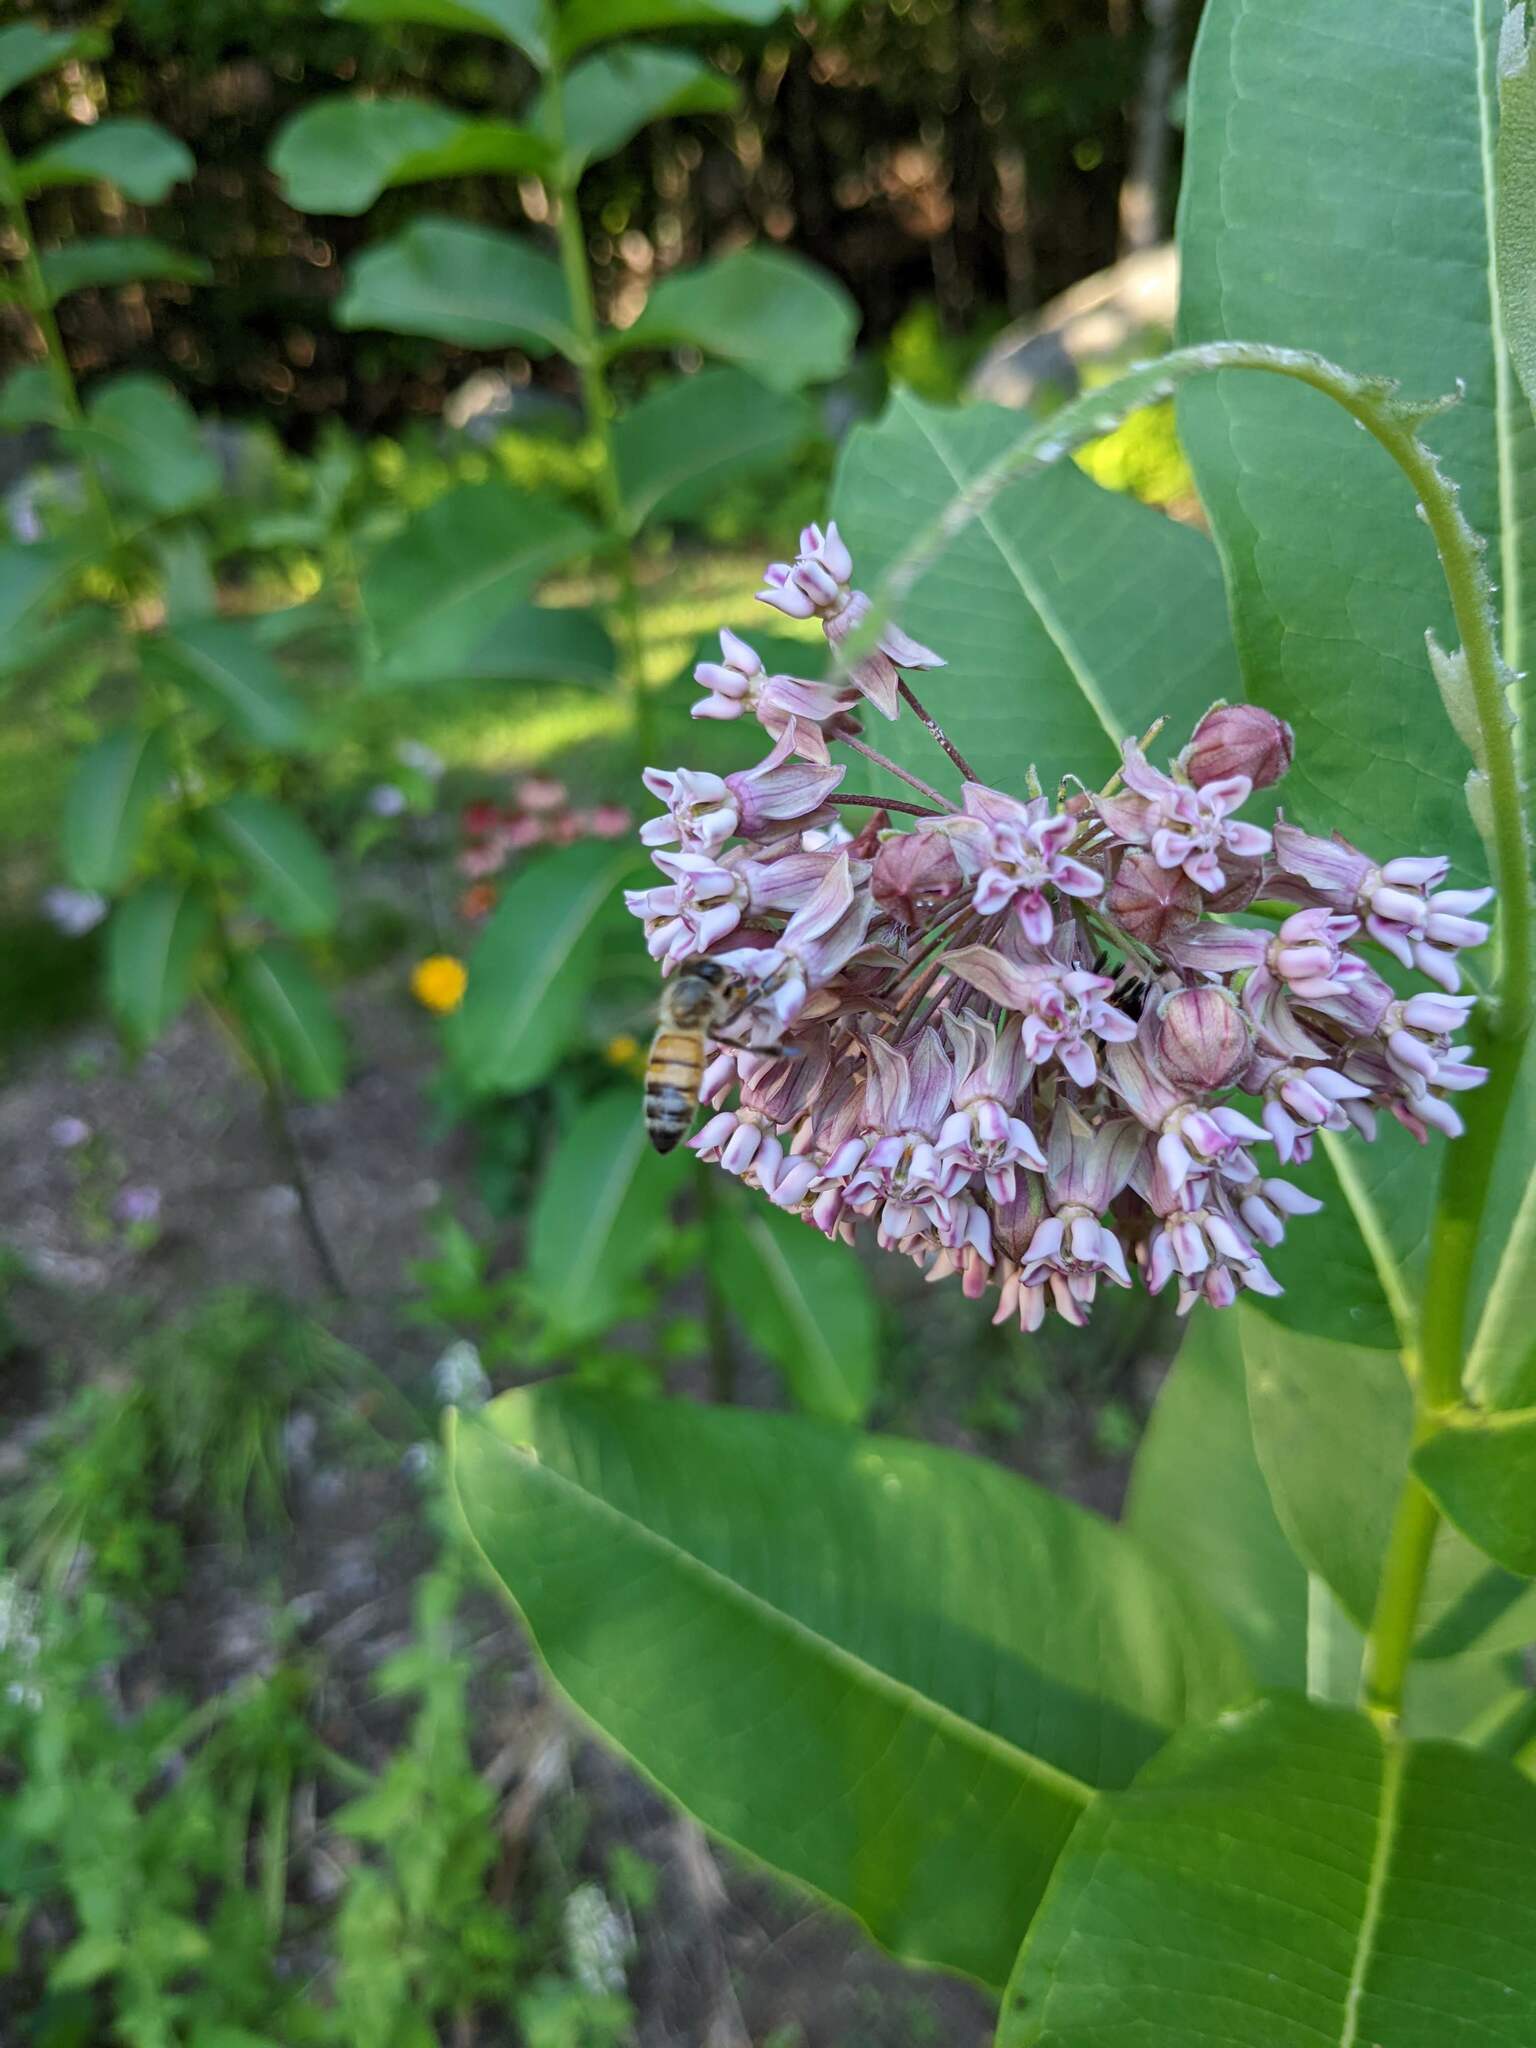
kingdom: Animalia
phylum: Arthropoda
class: Insecta
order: Hymenoptera
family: Apidae
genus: Apis
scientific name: Apis mellifera
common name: Honey bee
